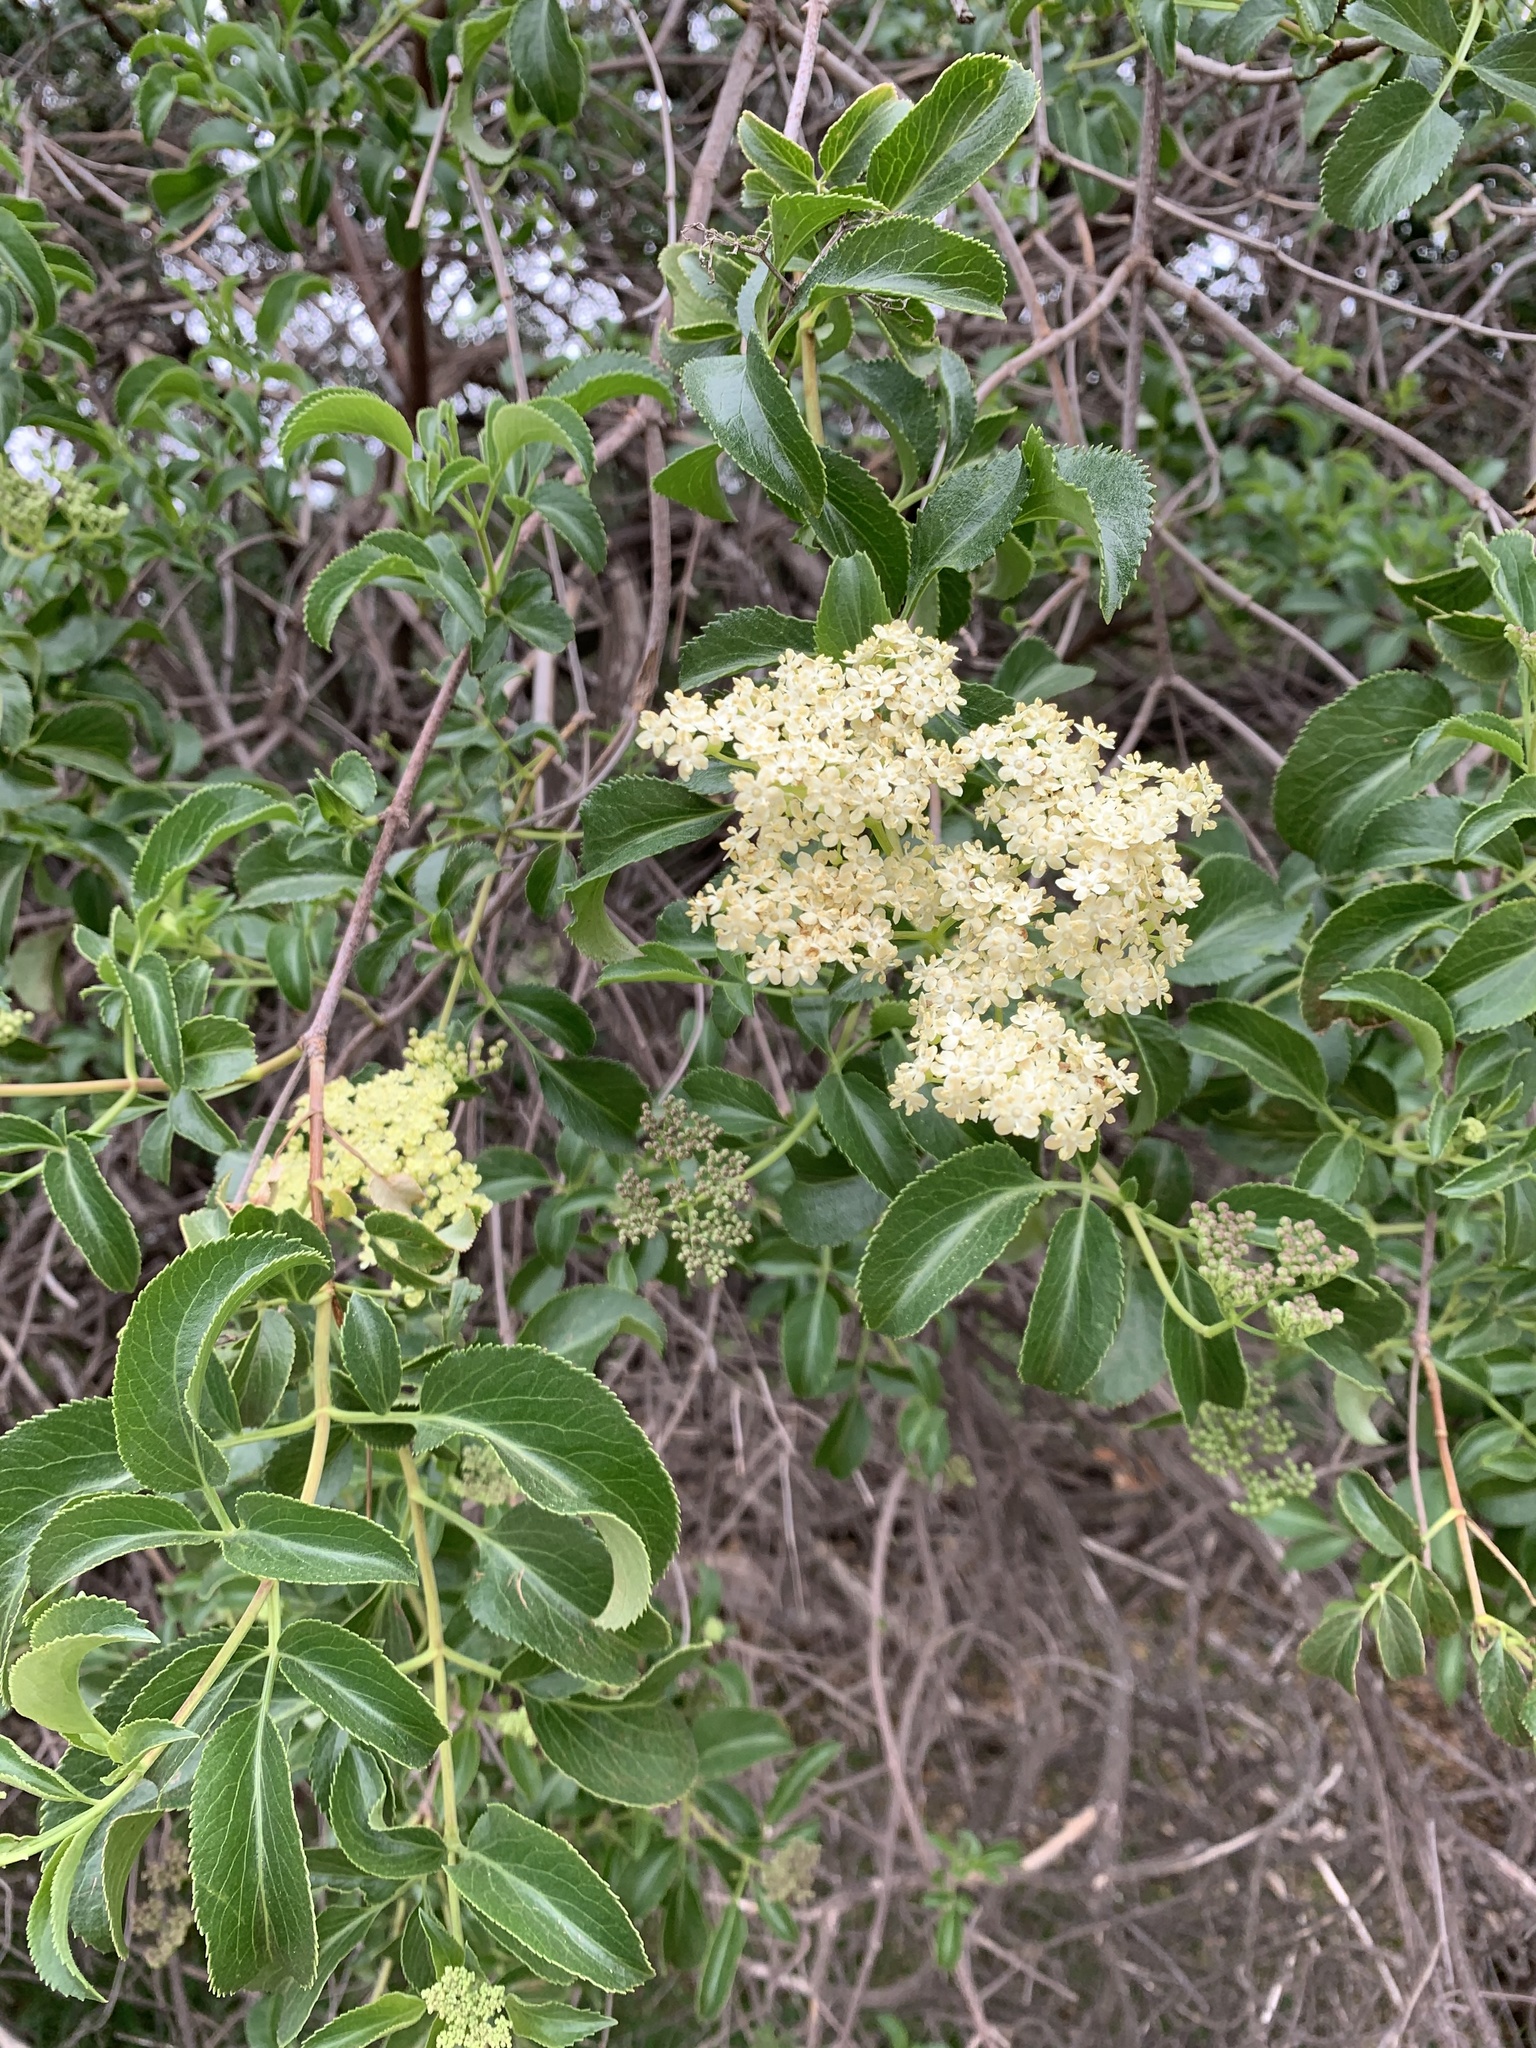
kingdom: Plantae
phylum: Tracheophyta
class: Magnoliopsida
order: Dipsacales
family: Viburnaceae
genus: Sambucus
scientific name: Sambucus cerulea
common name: Blue elder
